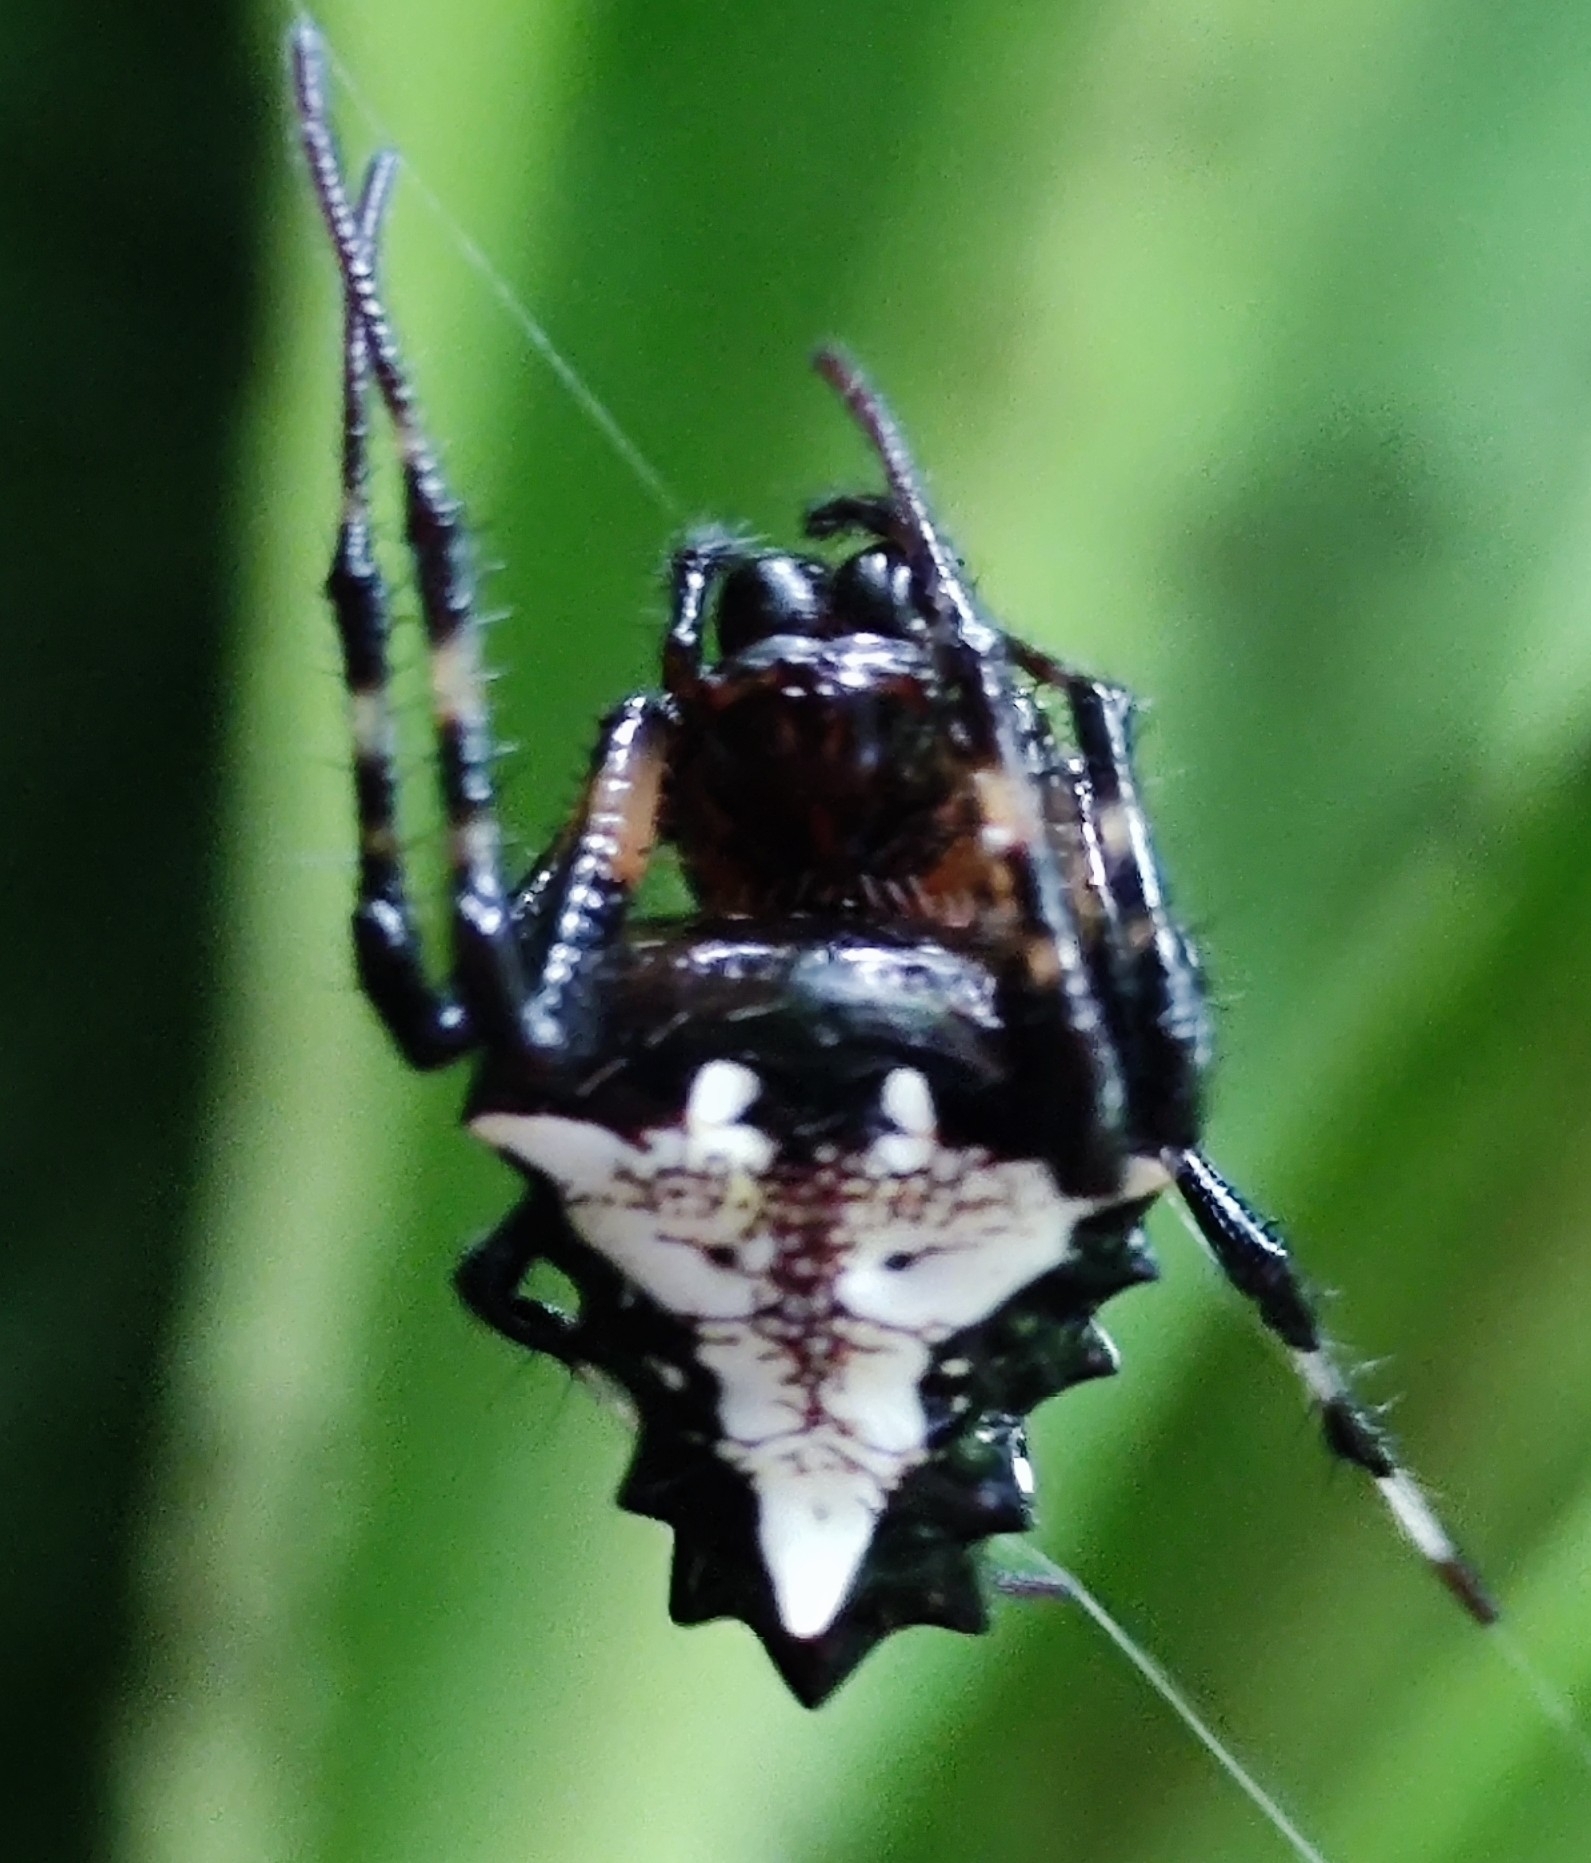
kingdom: Animalia
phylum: Arthropoda
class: Arachnida
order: Araneae
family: Araneidae
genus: Verrucosa
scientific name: Verrucosa arenata
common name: Orb weavers
